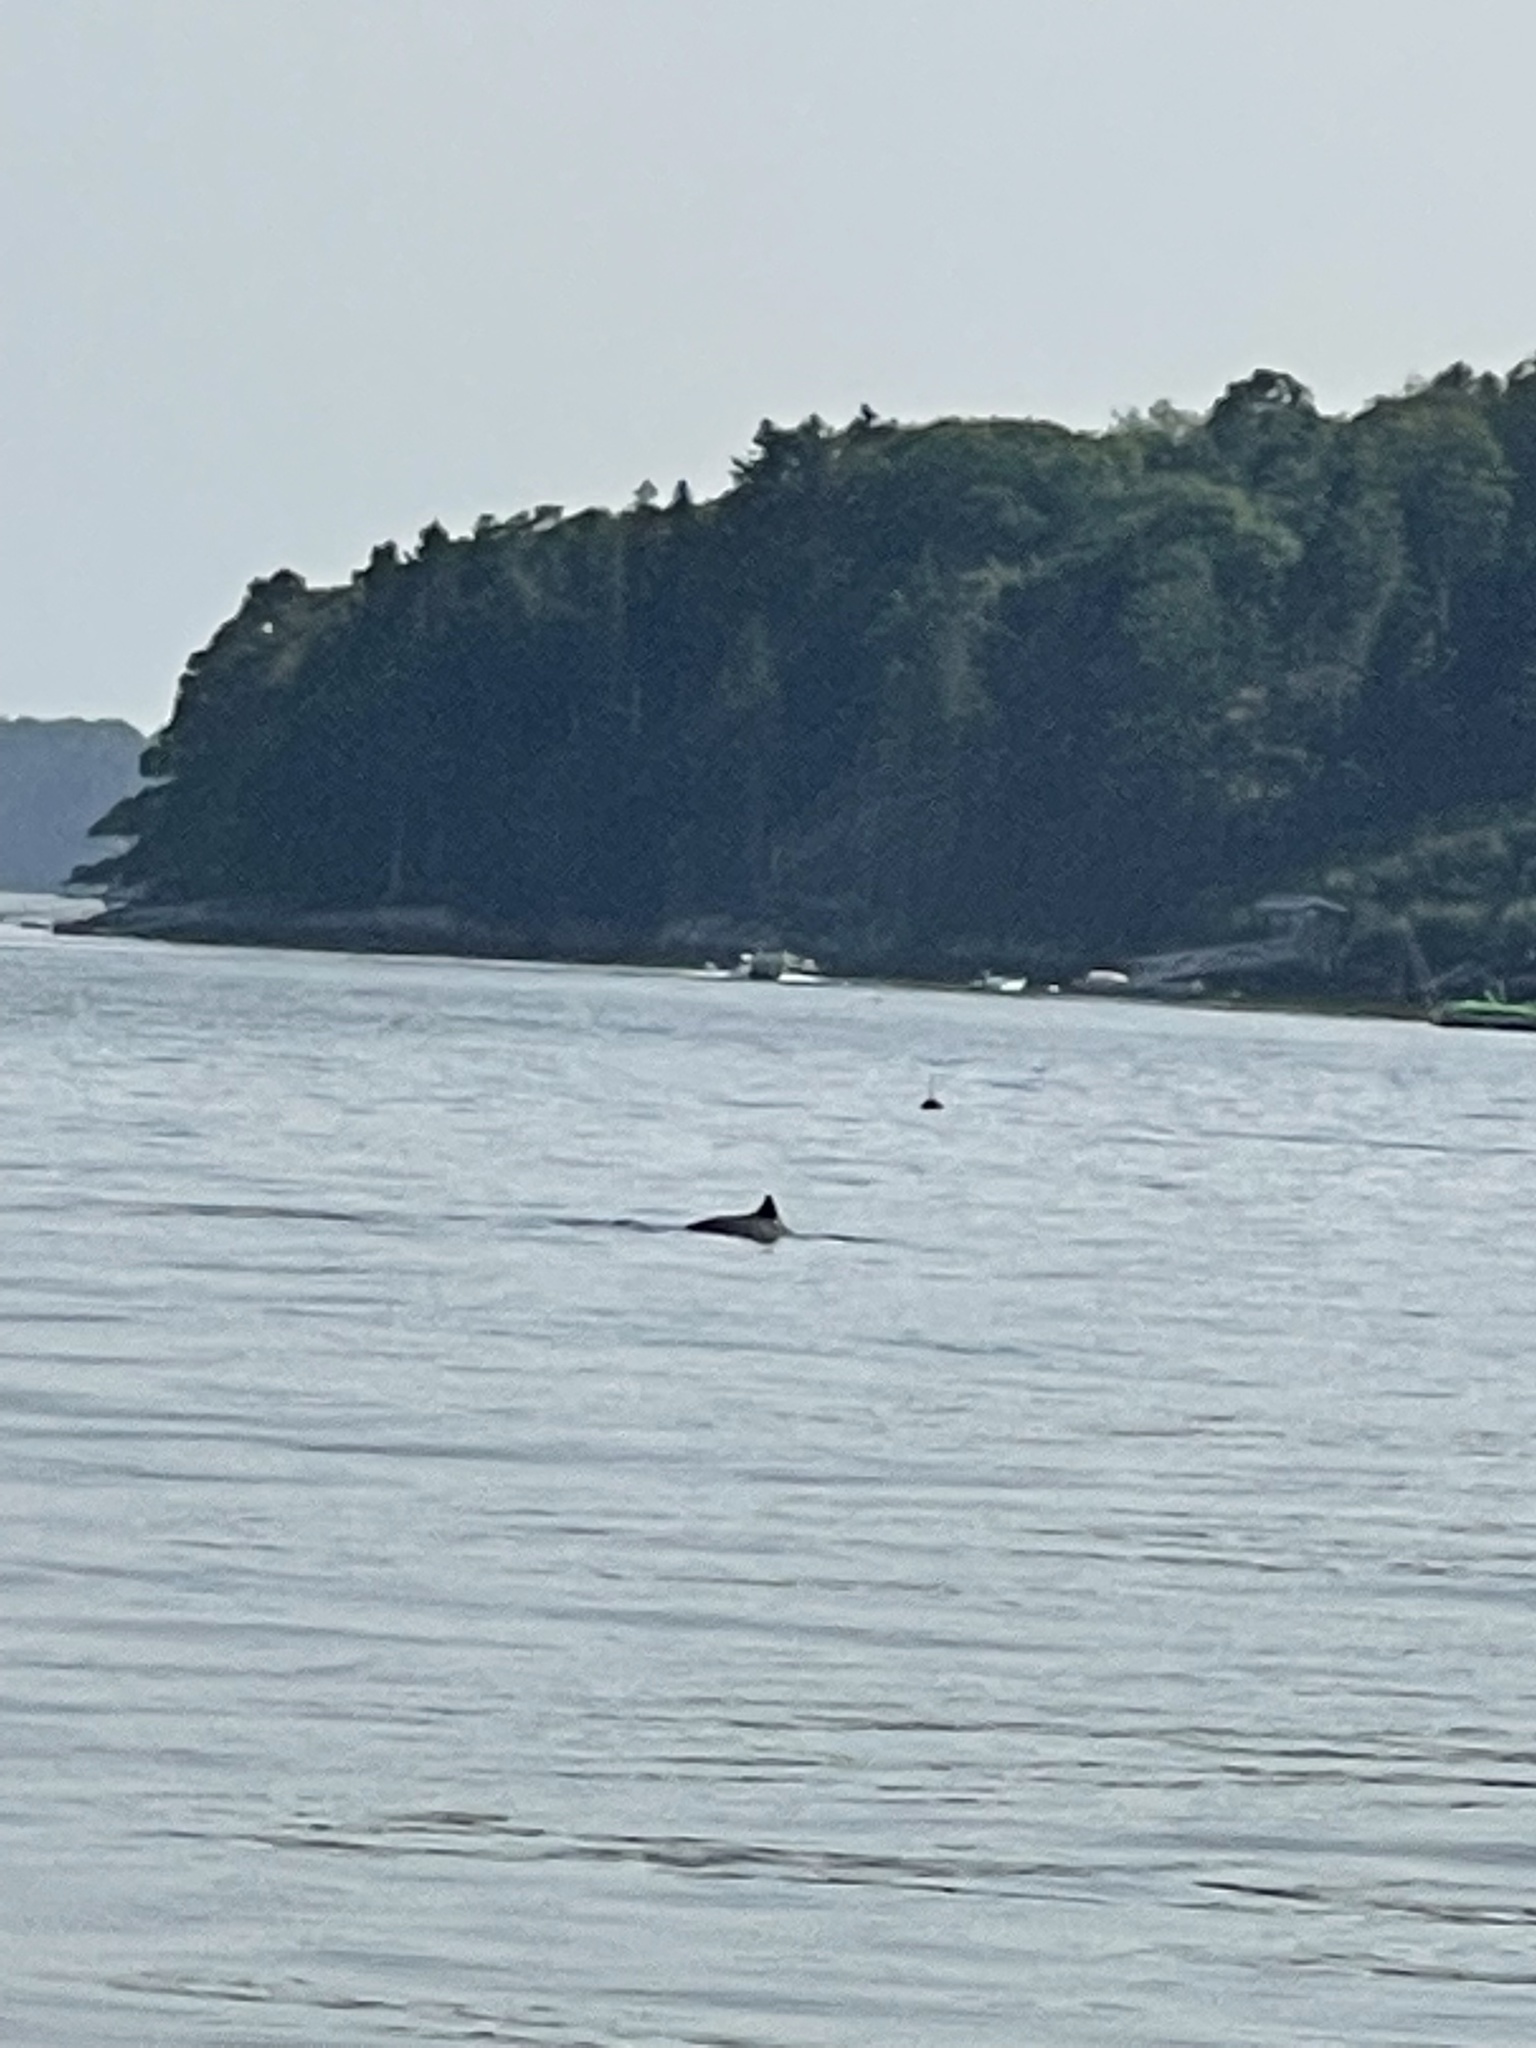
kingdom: Animalia
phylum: Chordata
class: Mammalia
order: Cetacea
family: Phocoenidae
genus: Phocoena
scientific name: Phocoena phocoena
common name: Harbor porpoise
